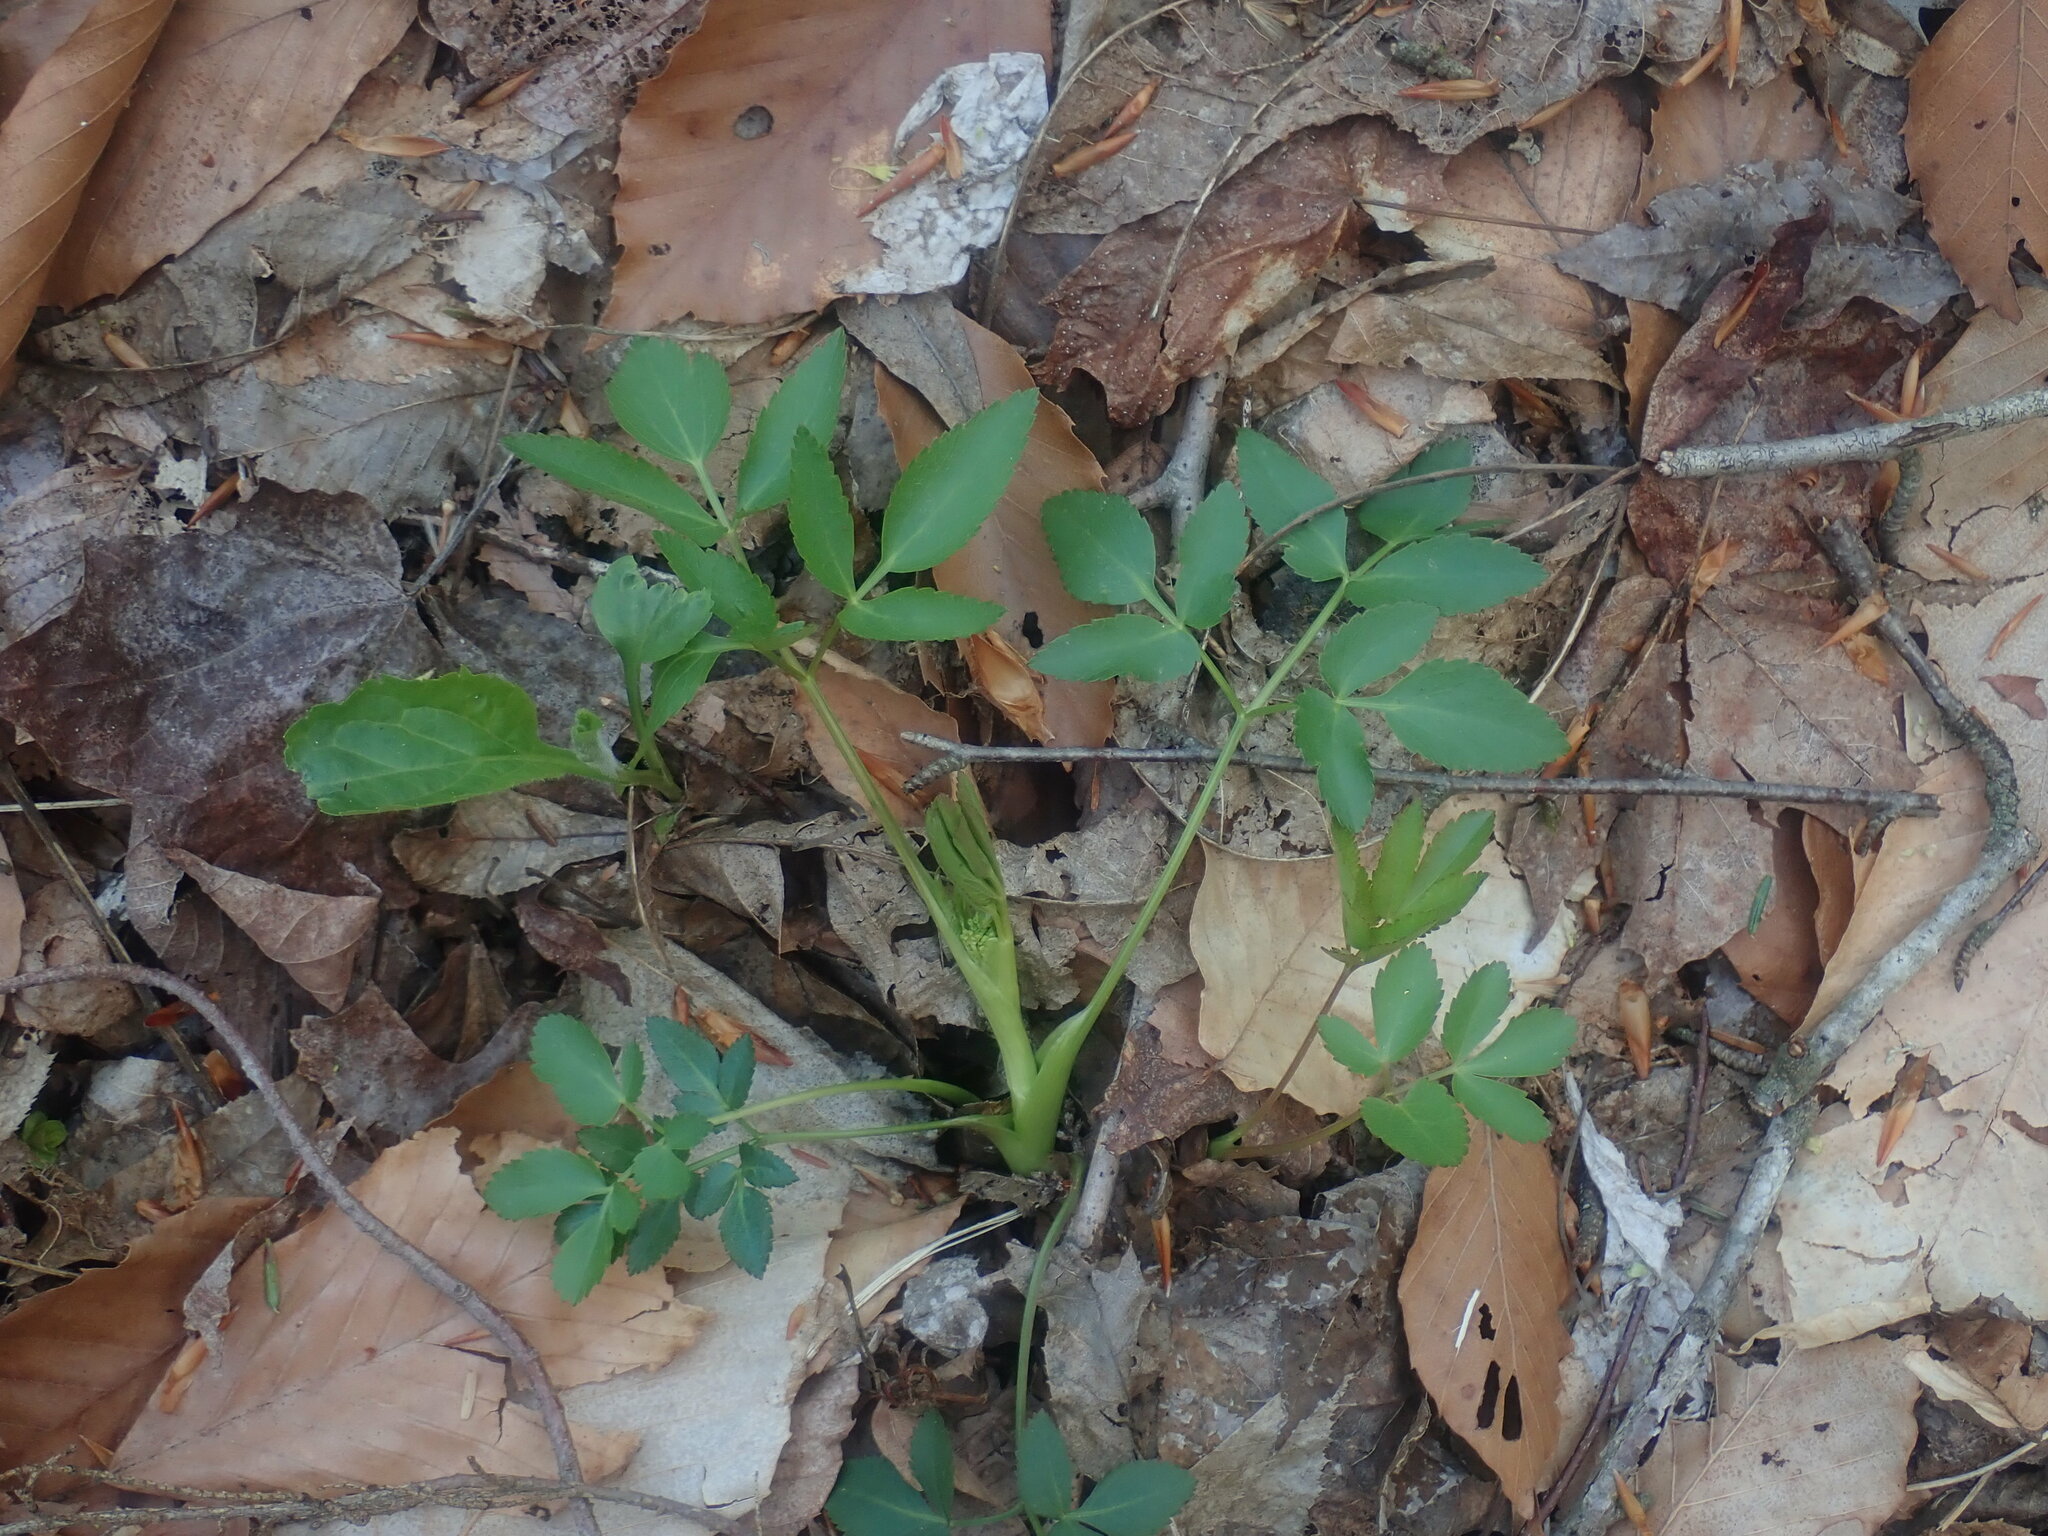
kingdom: Plantae
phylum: Tracheophyta
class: Magnoliopsida
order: Apiales
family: Apiaceae
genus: Zizia
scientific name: Zizia aurea
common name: Golden alexanders
